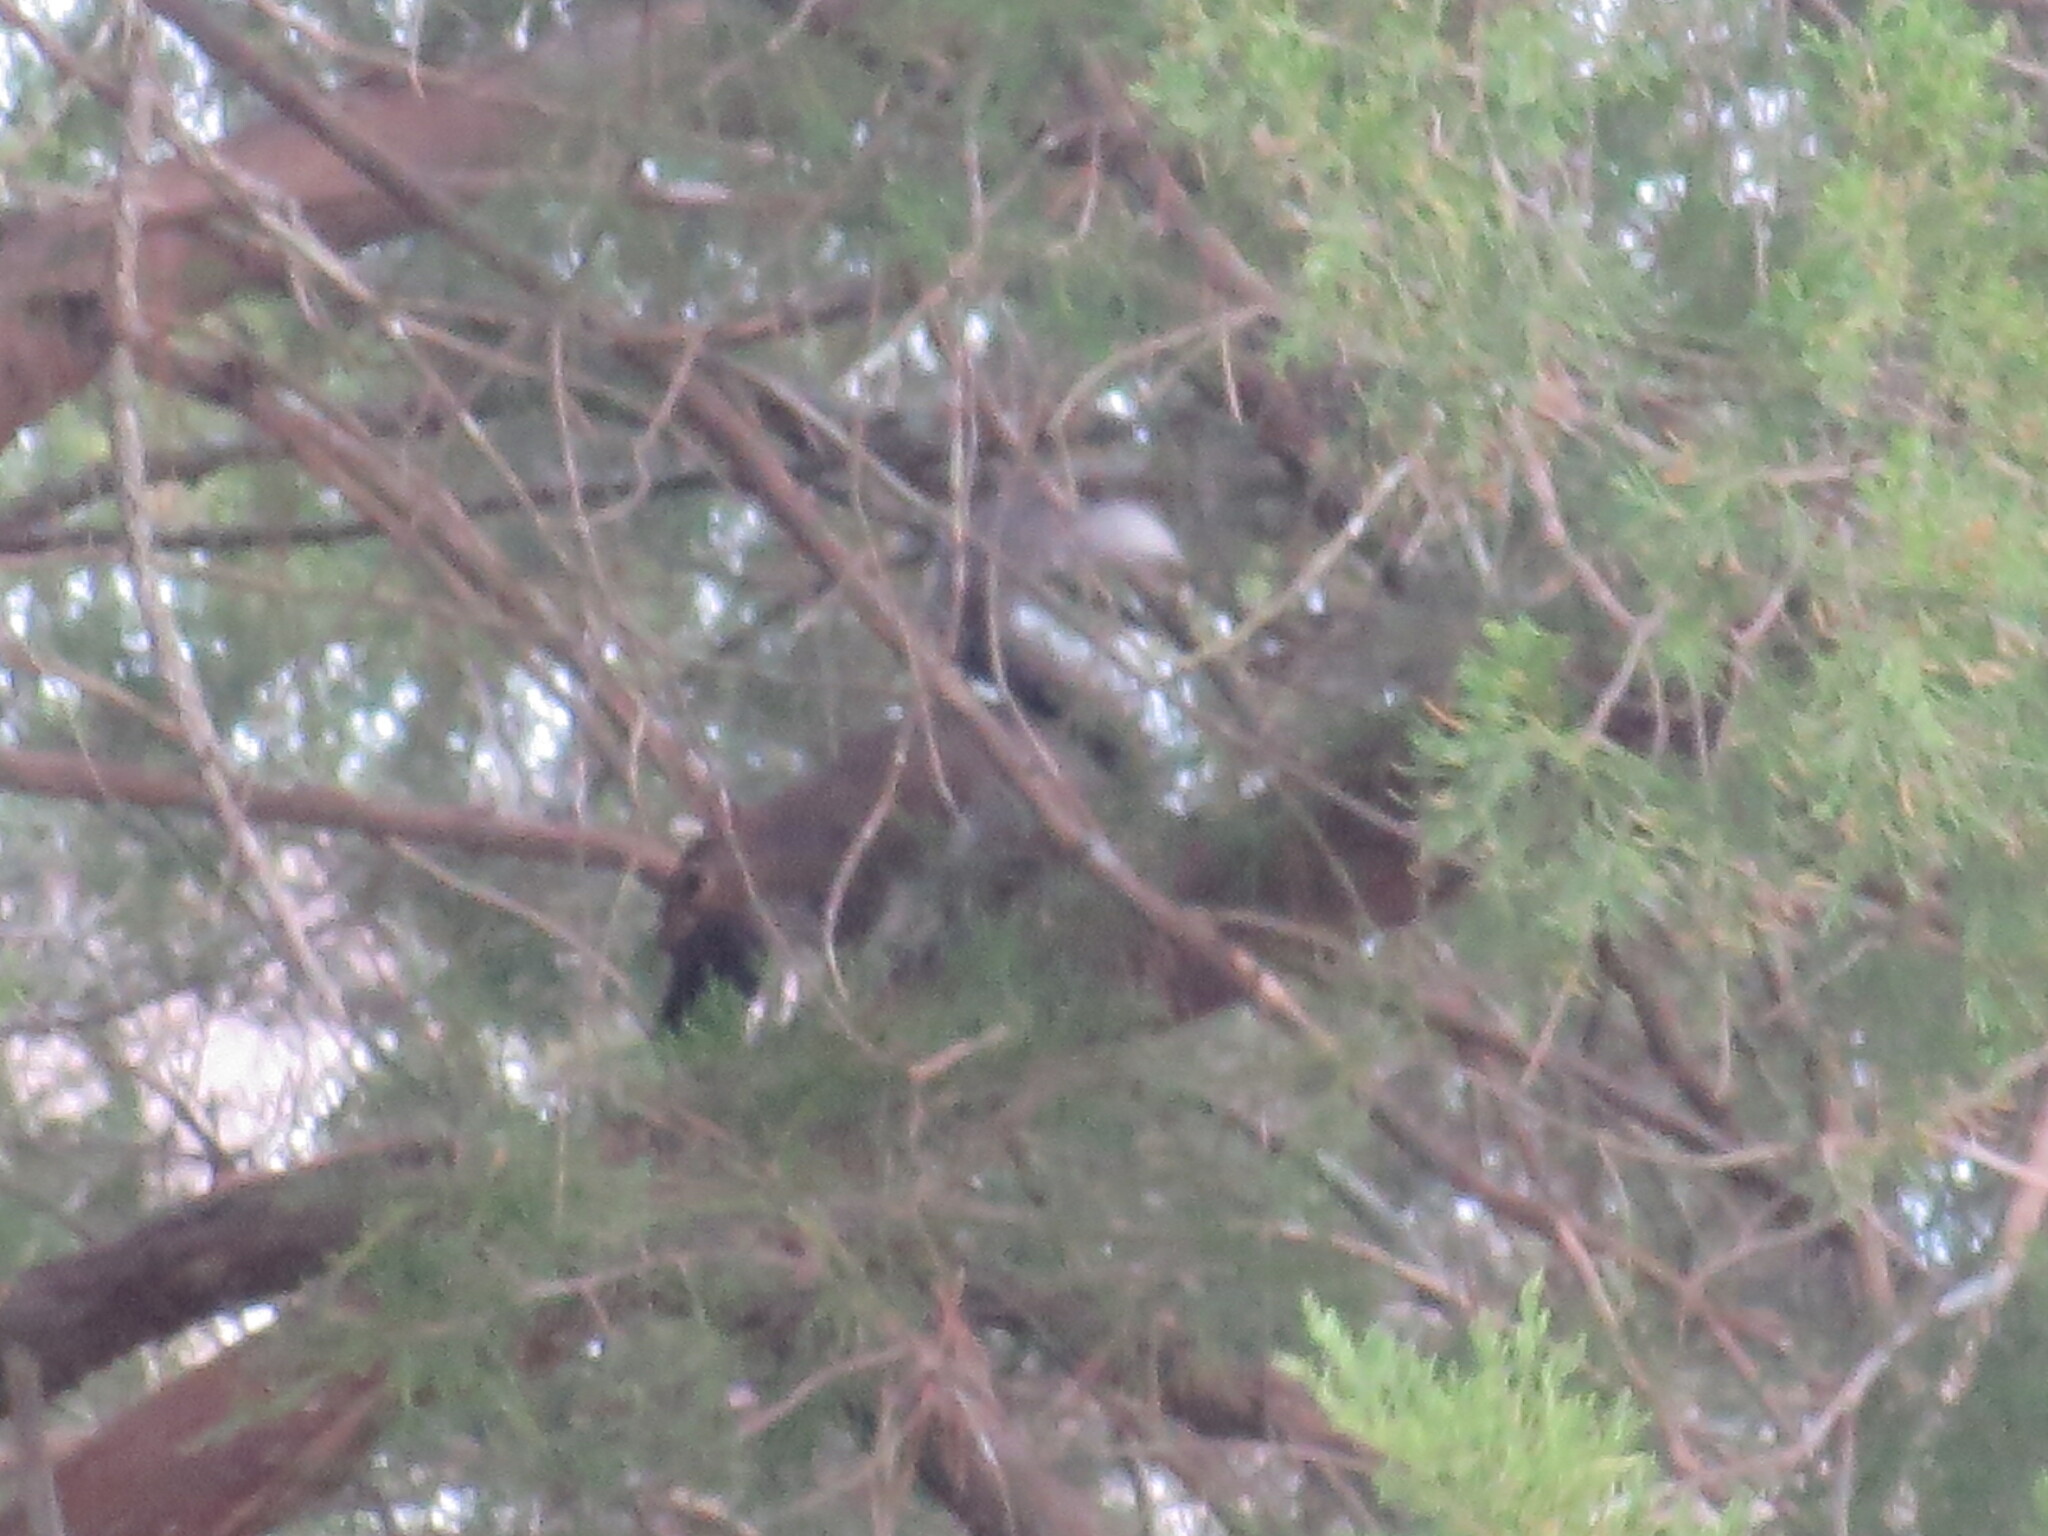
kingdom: Animalia
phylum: Chordata
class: Mammalia
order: Rodentia
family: Sciuridae
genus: Sciurus
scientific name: Sciurus carolinensis
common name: Eastern gray squirrel
